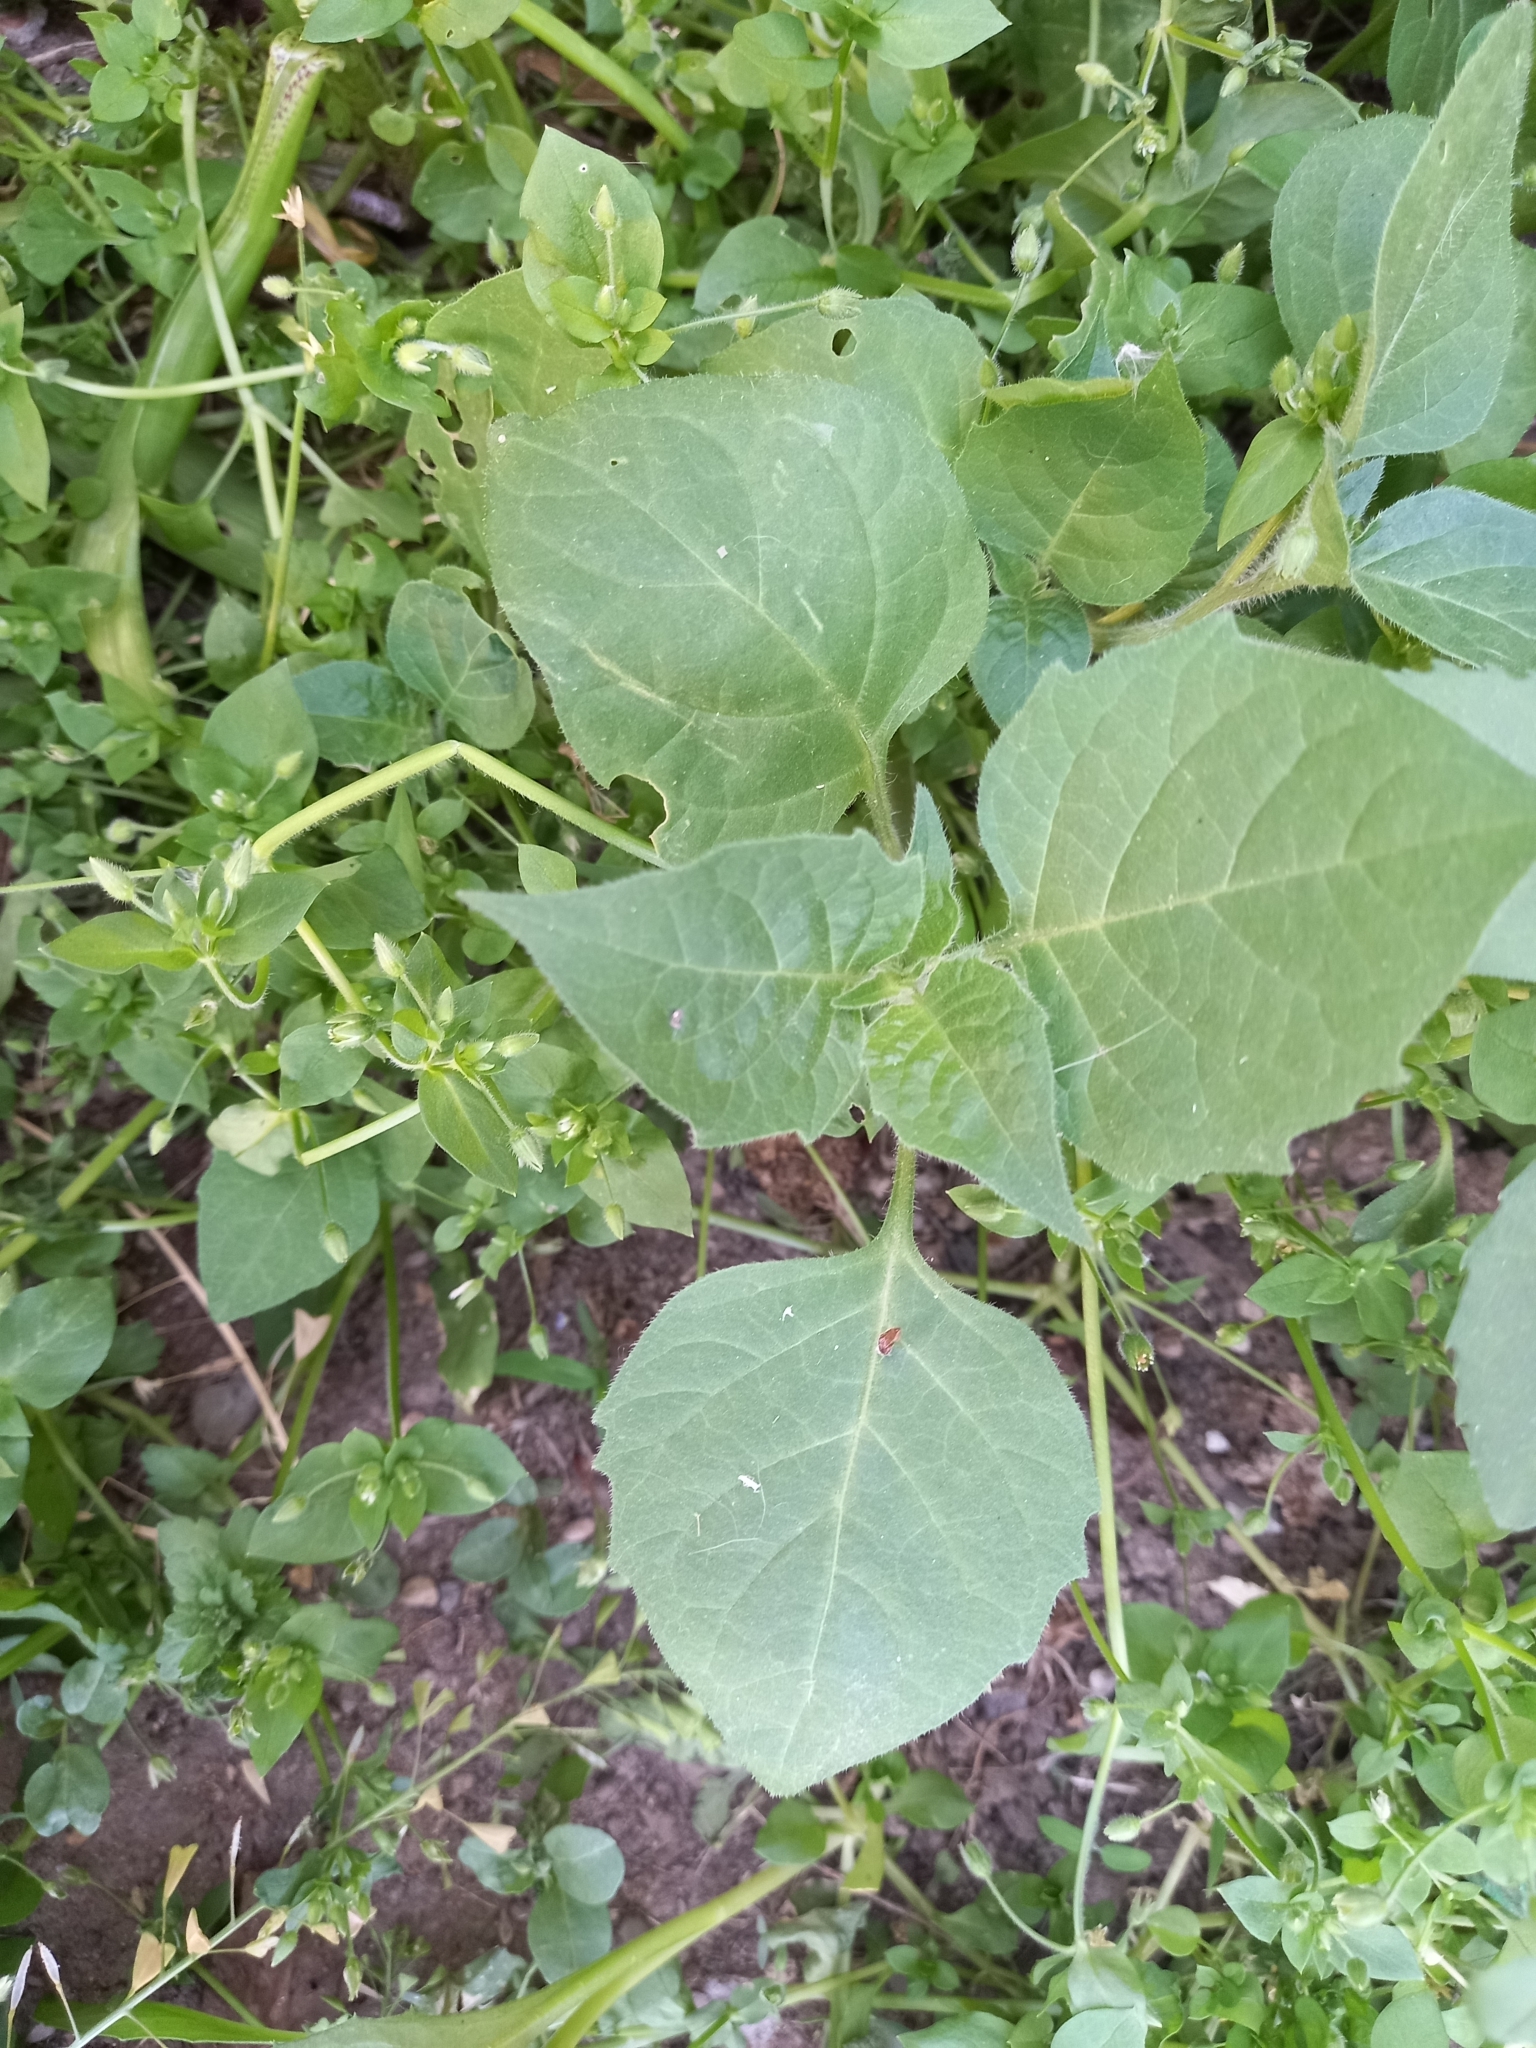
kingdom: Plantae
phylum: Tracheophyta
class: Magnoliopsida
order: Solanales
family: Solanaceae
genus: Solanum
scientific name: Solanum nigrum
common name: Black nightshade
